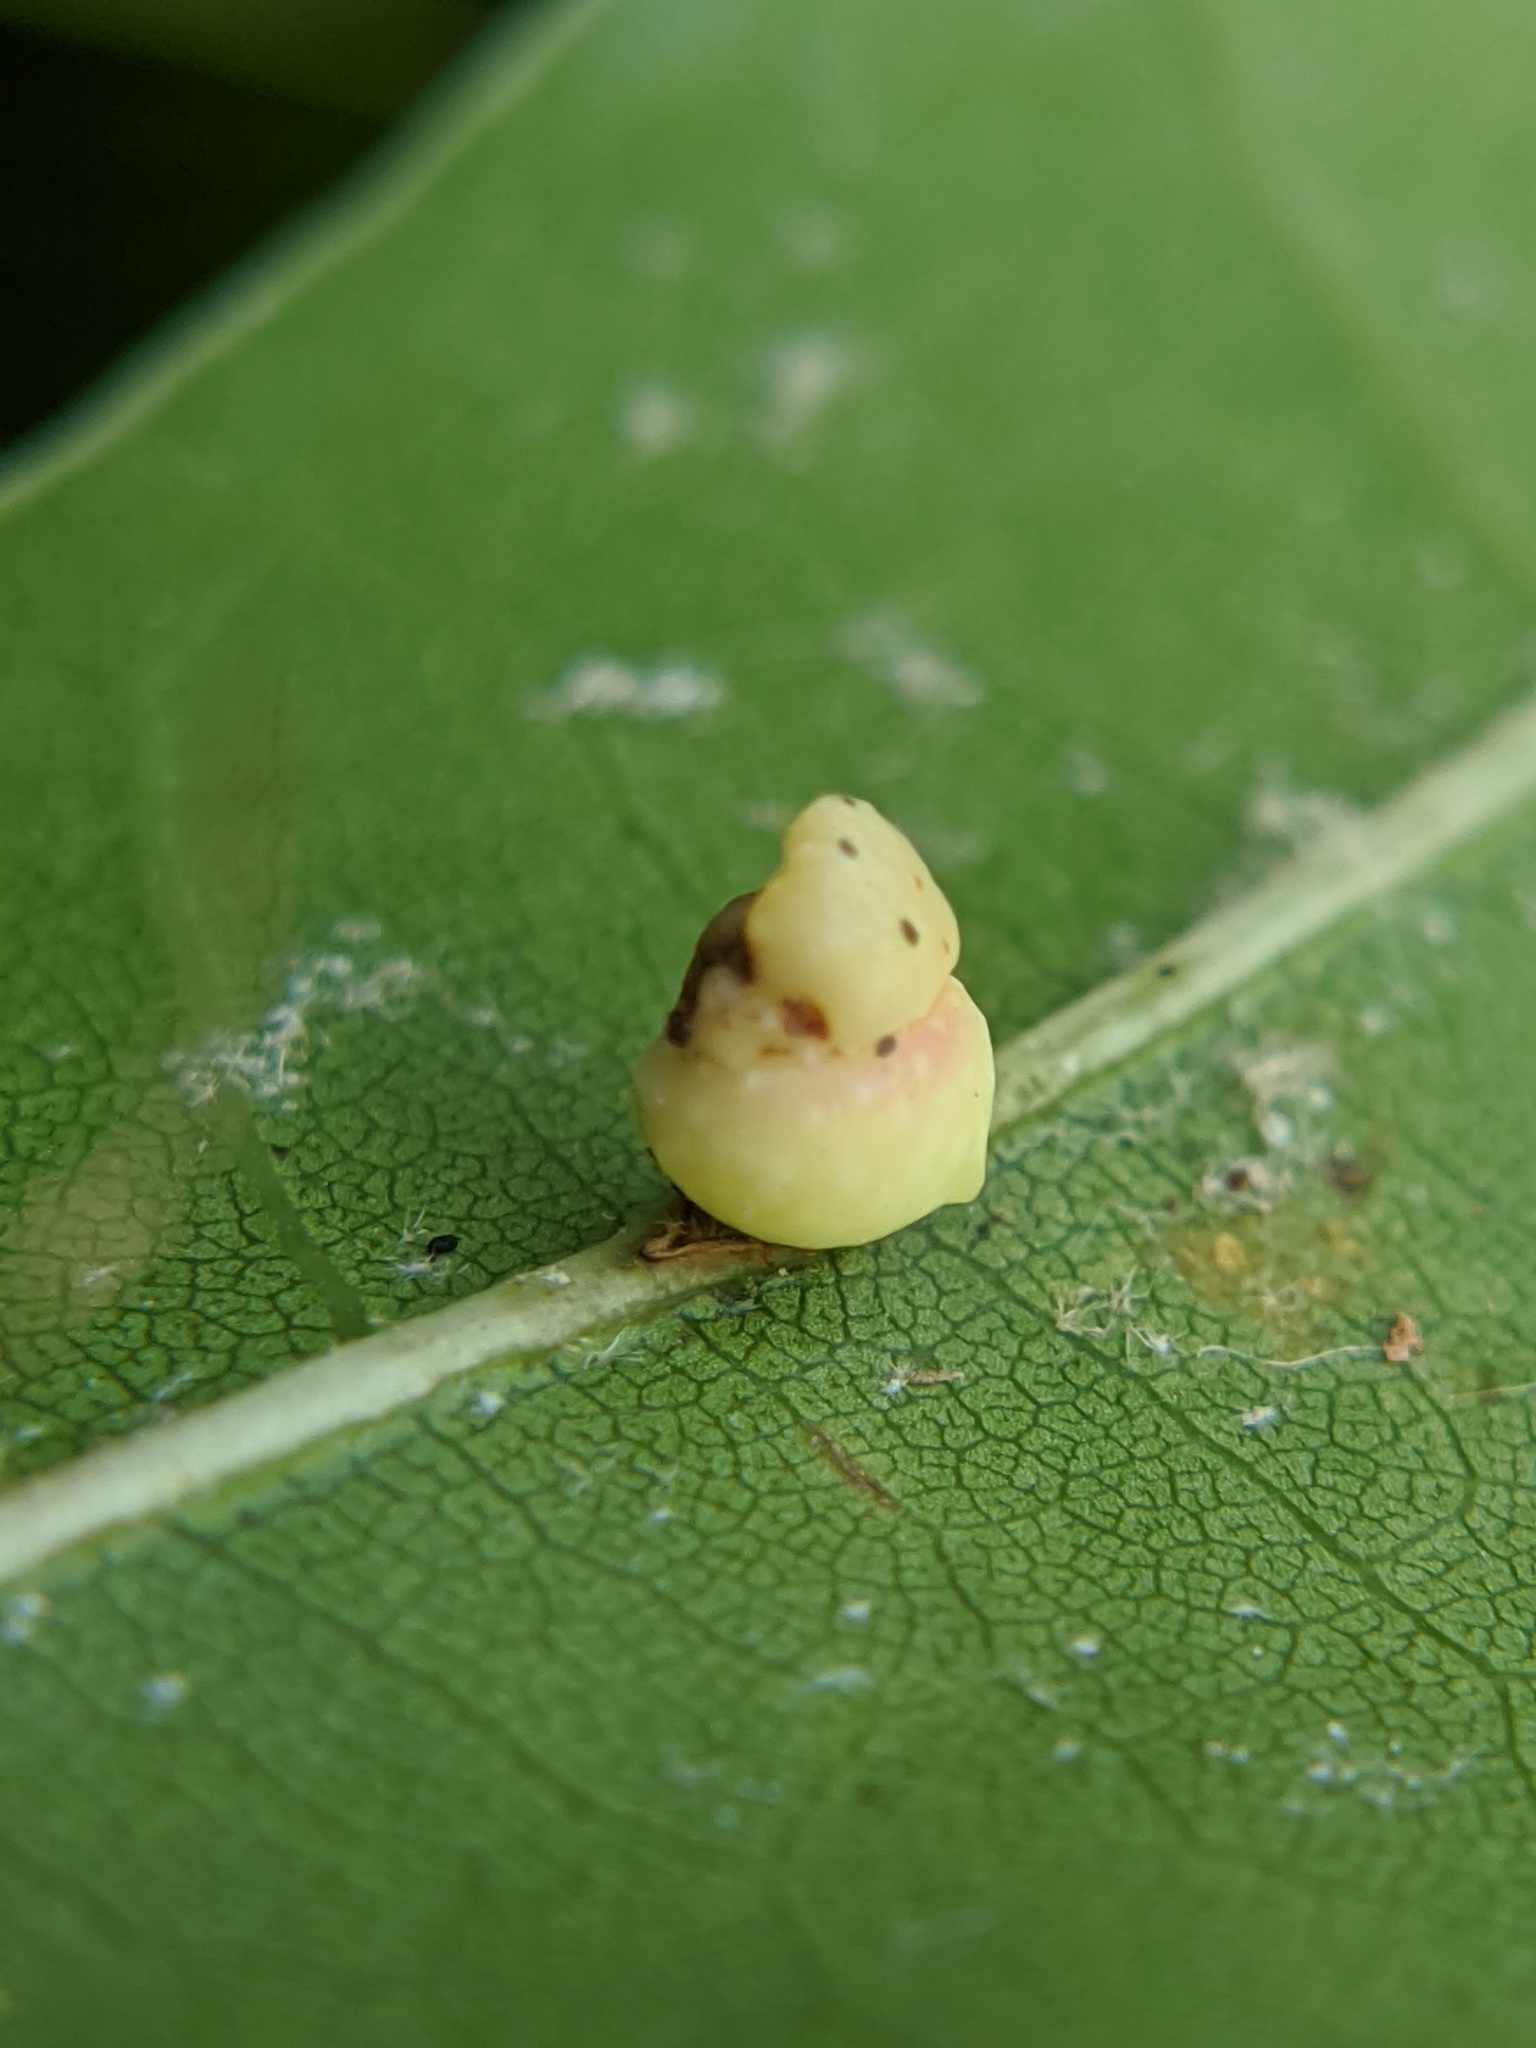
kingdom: Animalia
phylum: Arthropoda
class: Insecta
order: Hymenoptera
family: Cynipidae
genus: Kokkocynips
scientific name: Kokkocynips rileyi
